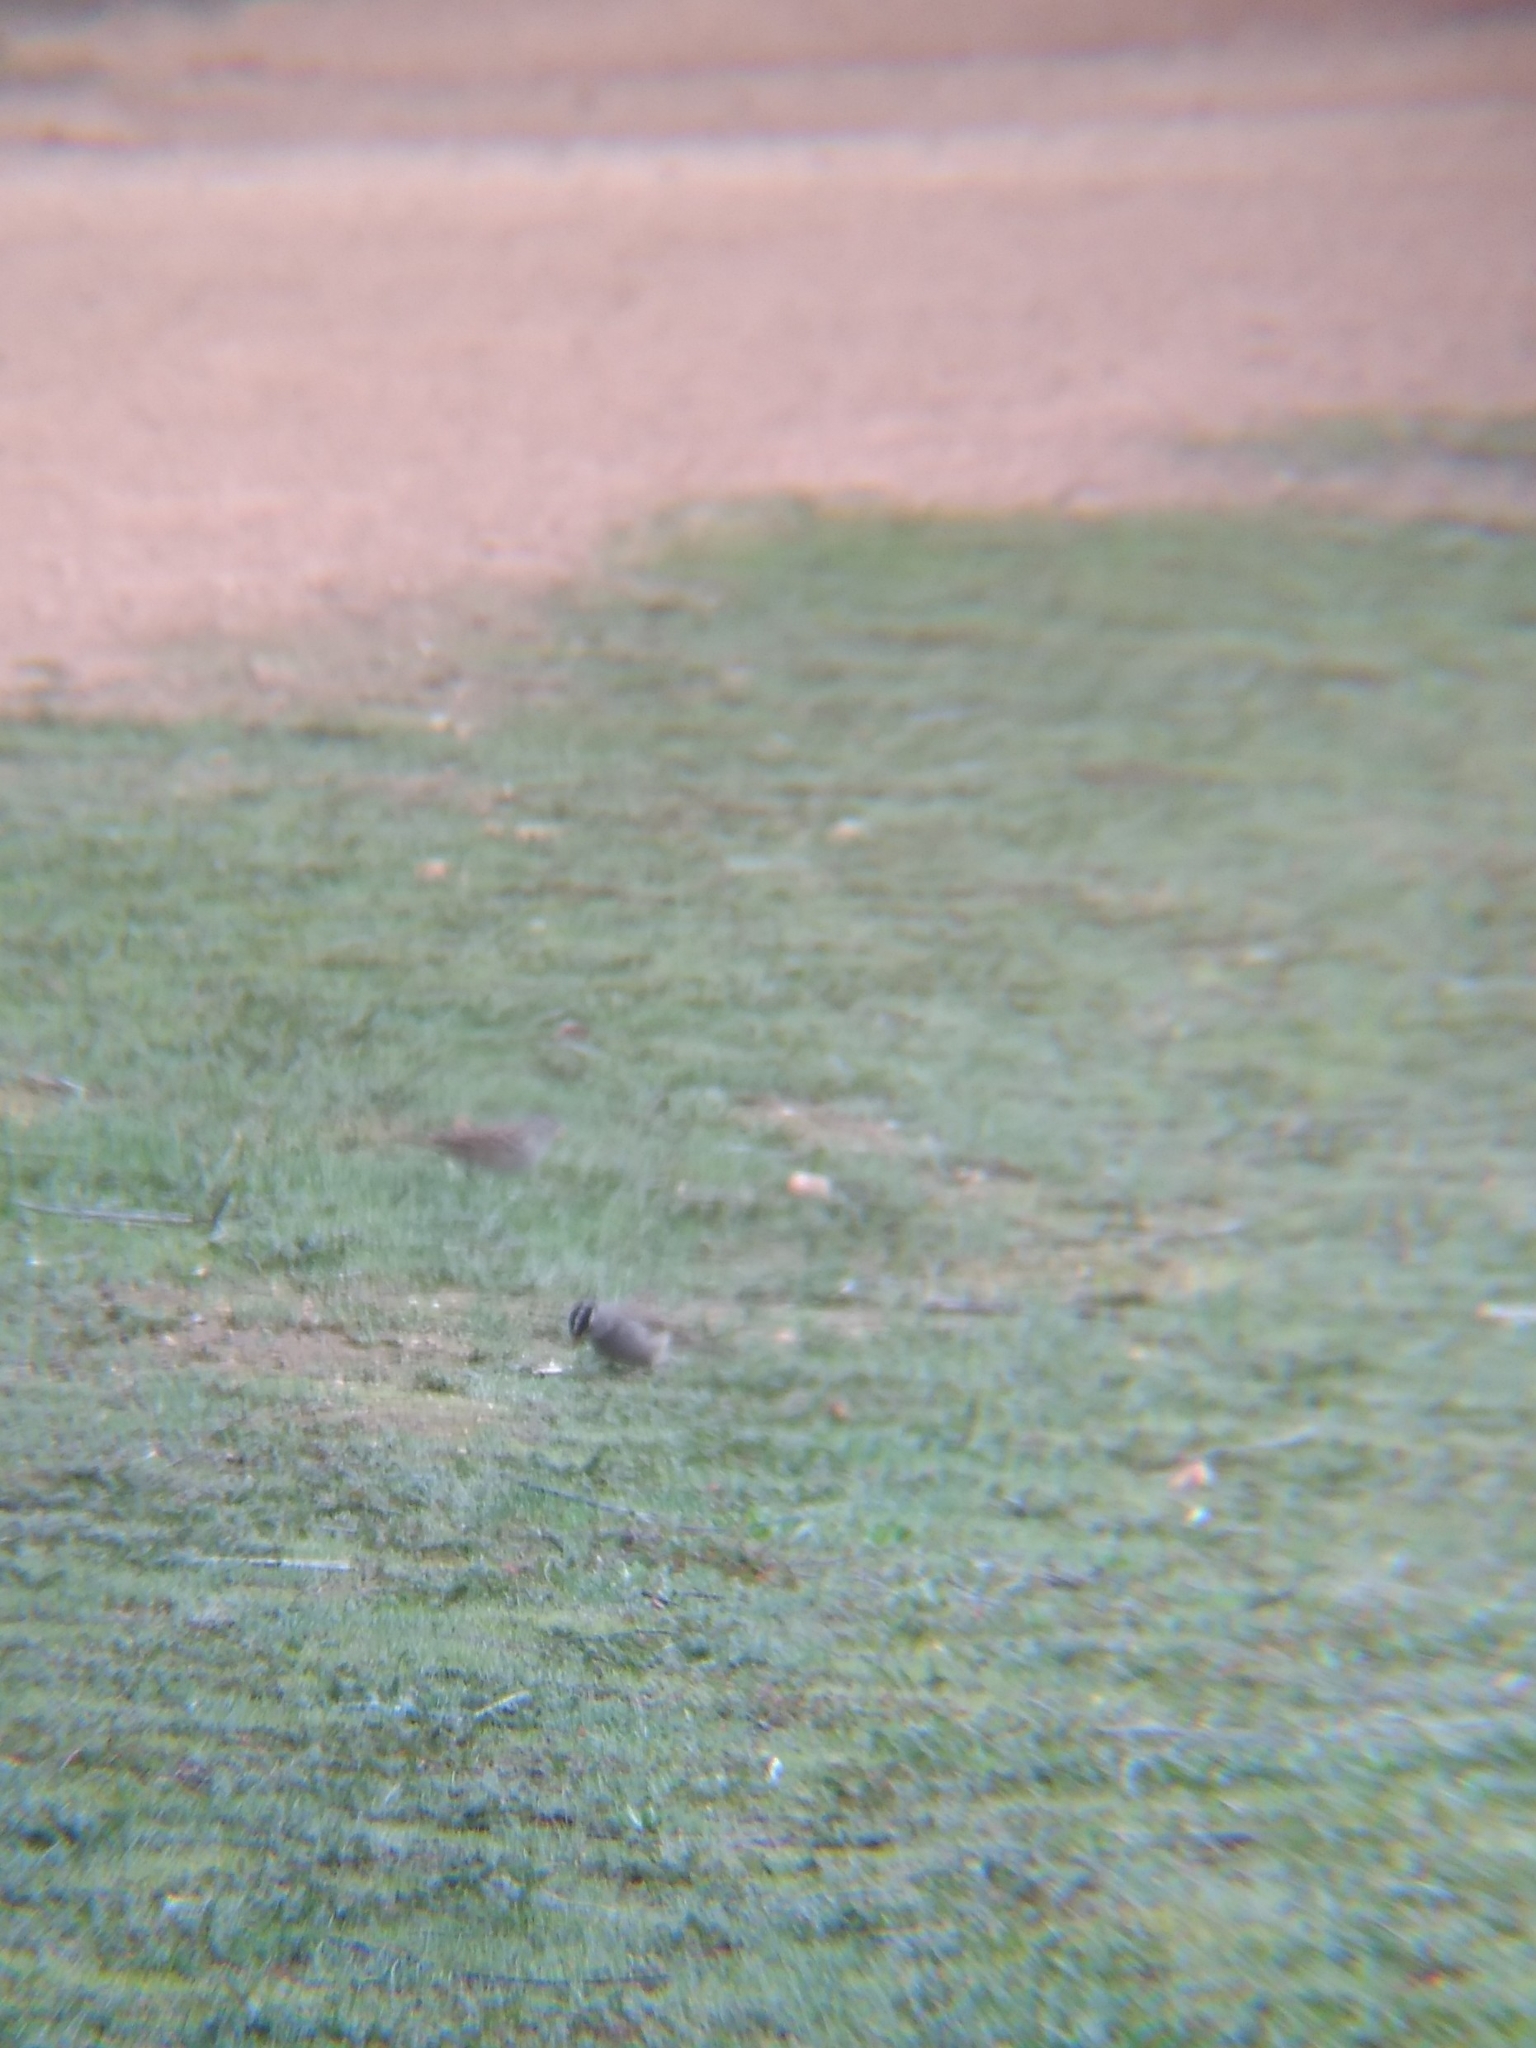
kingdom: Animalia
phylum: Chordata
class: Aves
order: Passeriformes
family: Passerellidae
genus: Zonotrichia
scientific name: Zonotrichia leucophrys
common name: White-crowned sparrow
